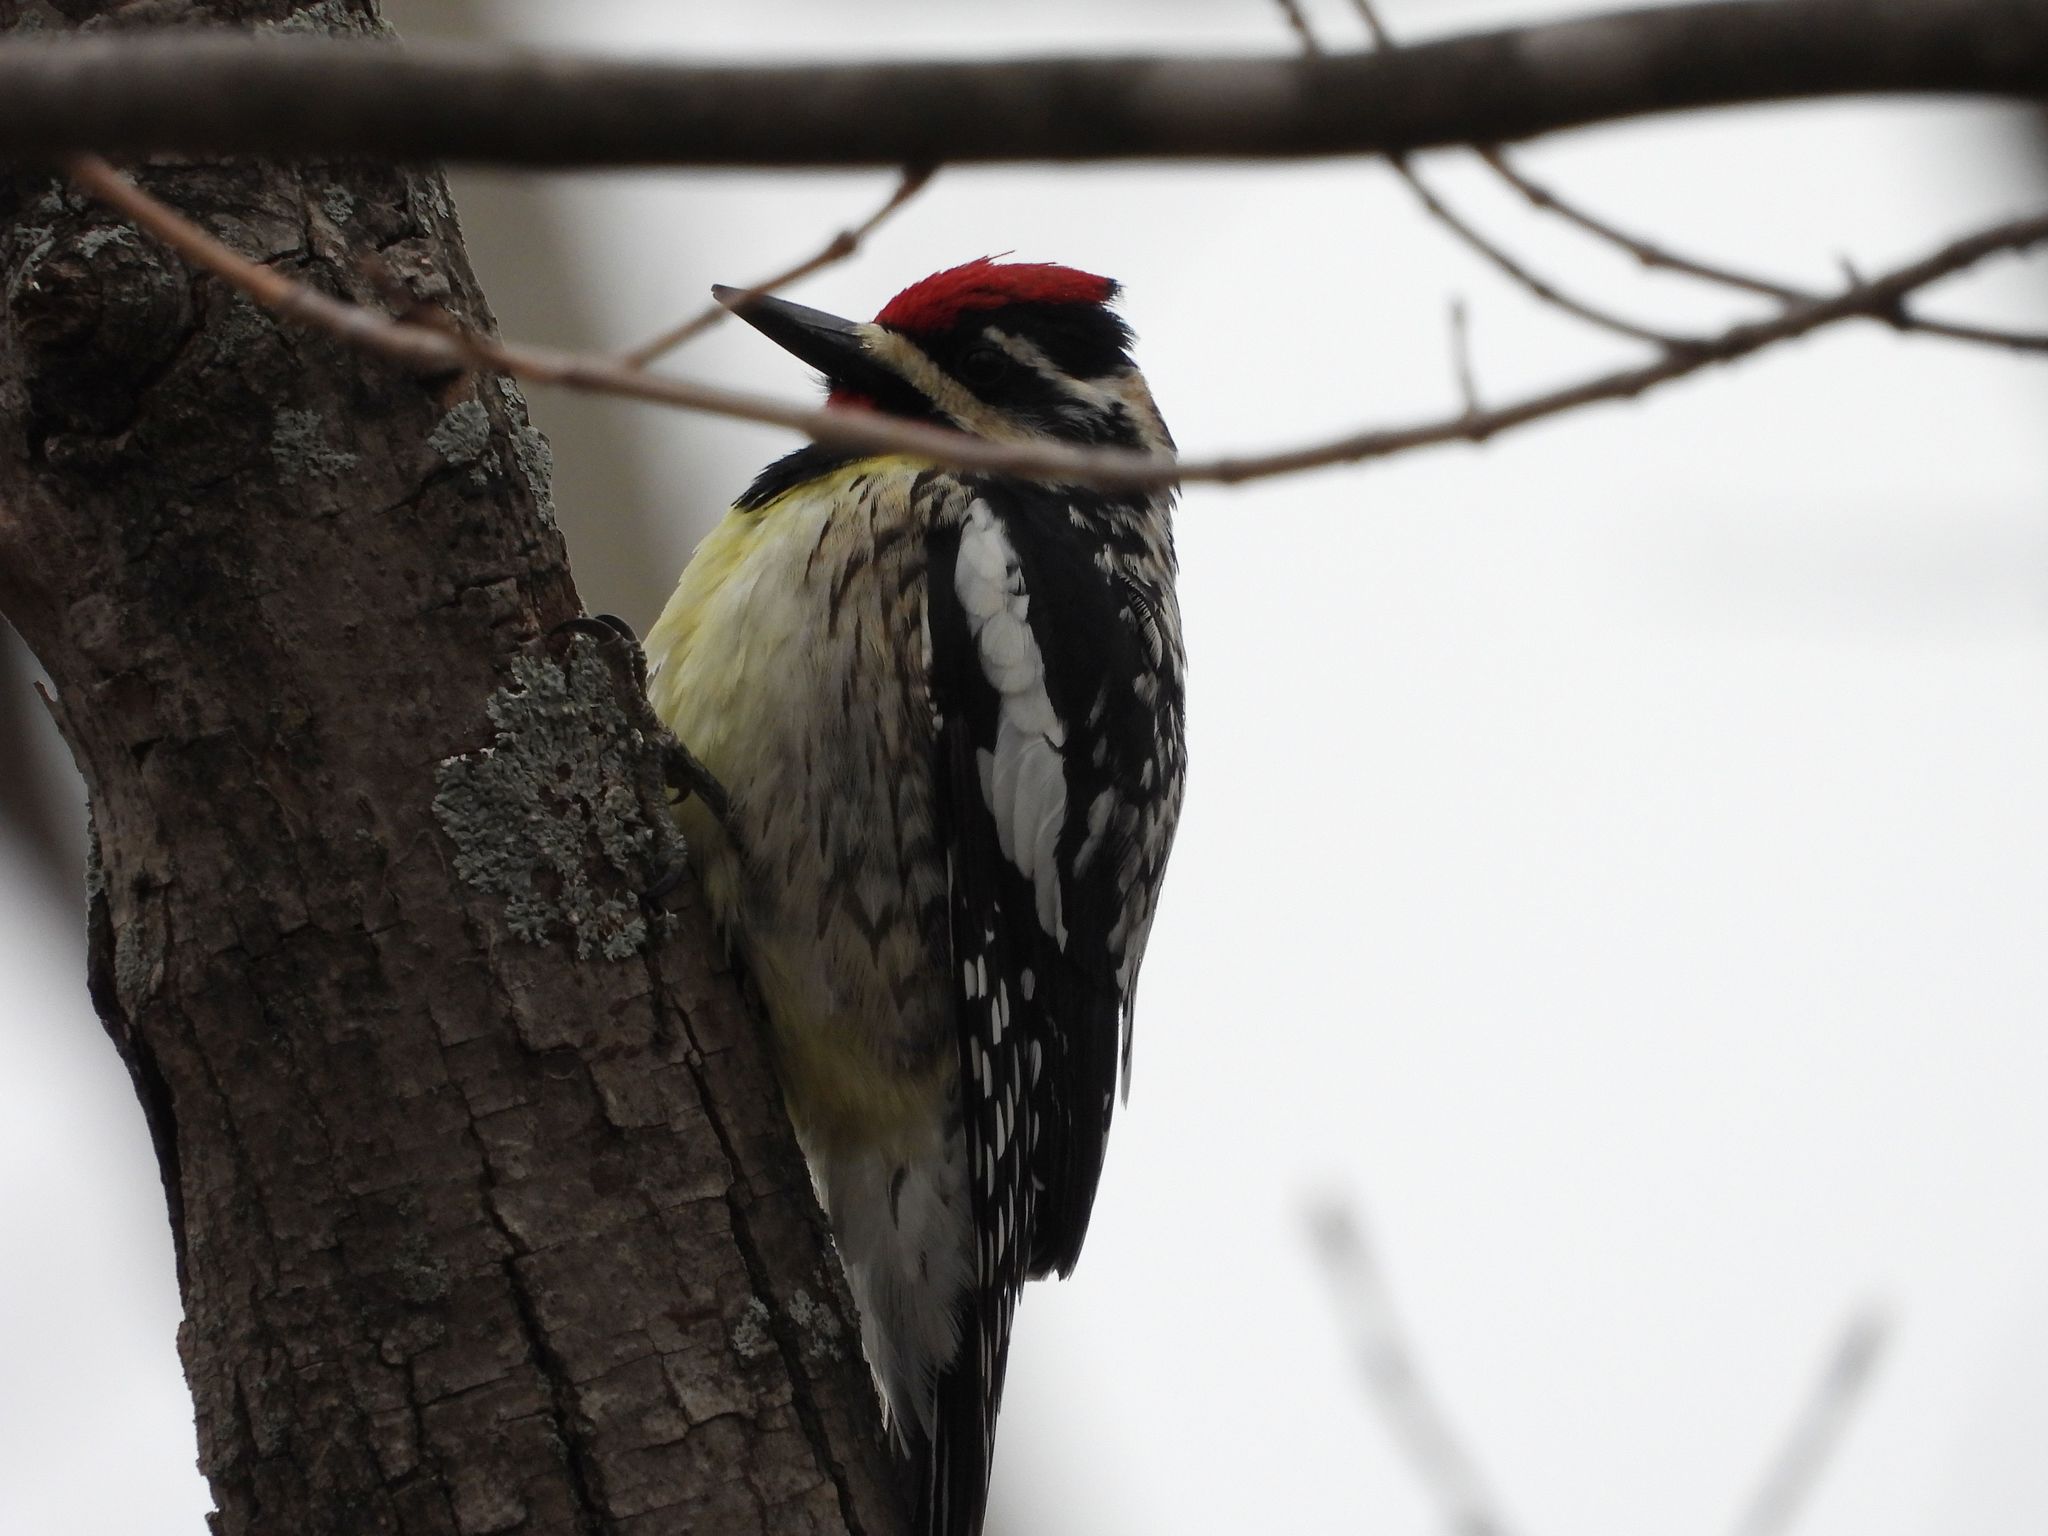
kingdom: Animalia
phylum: Chordata
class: Aves
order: Piciformes
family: Picidae
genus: Sphyrapicus
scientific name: Sphyrapicus varius
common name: Yellow-bellied sapsucker
